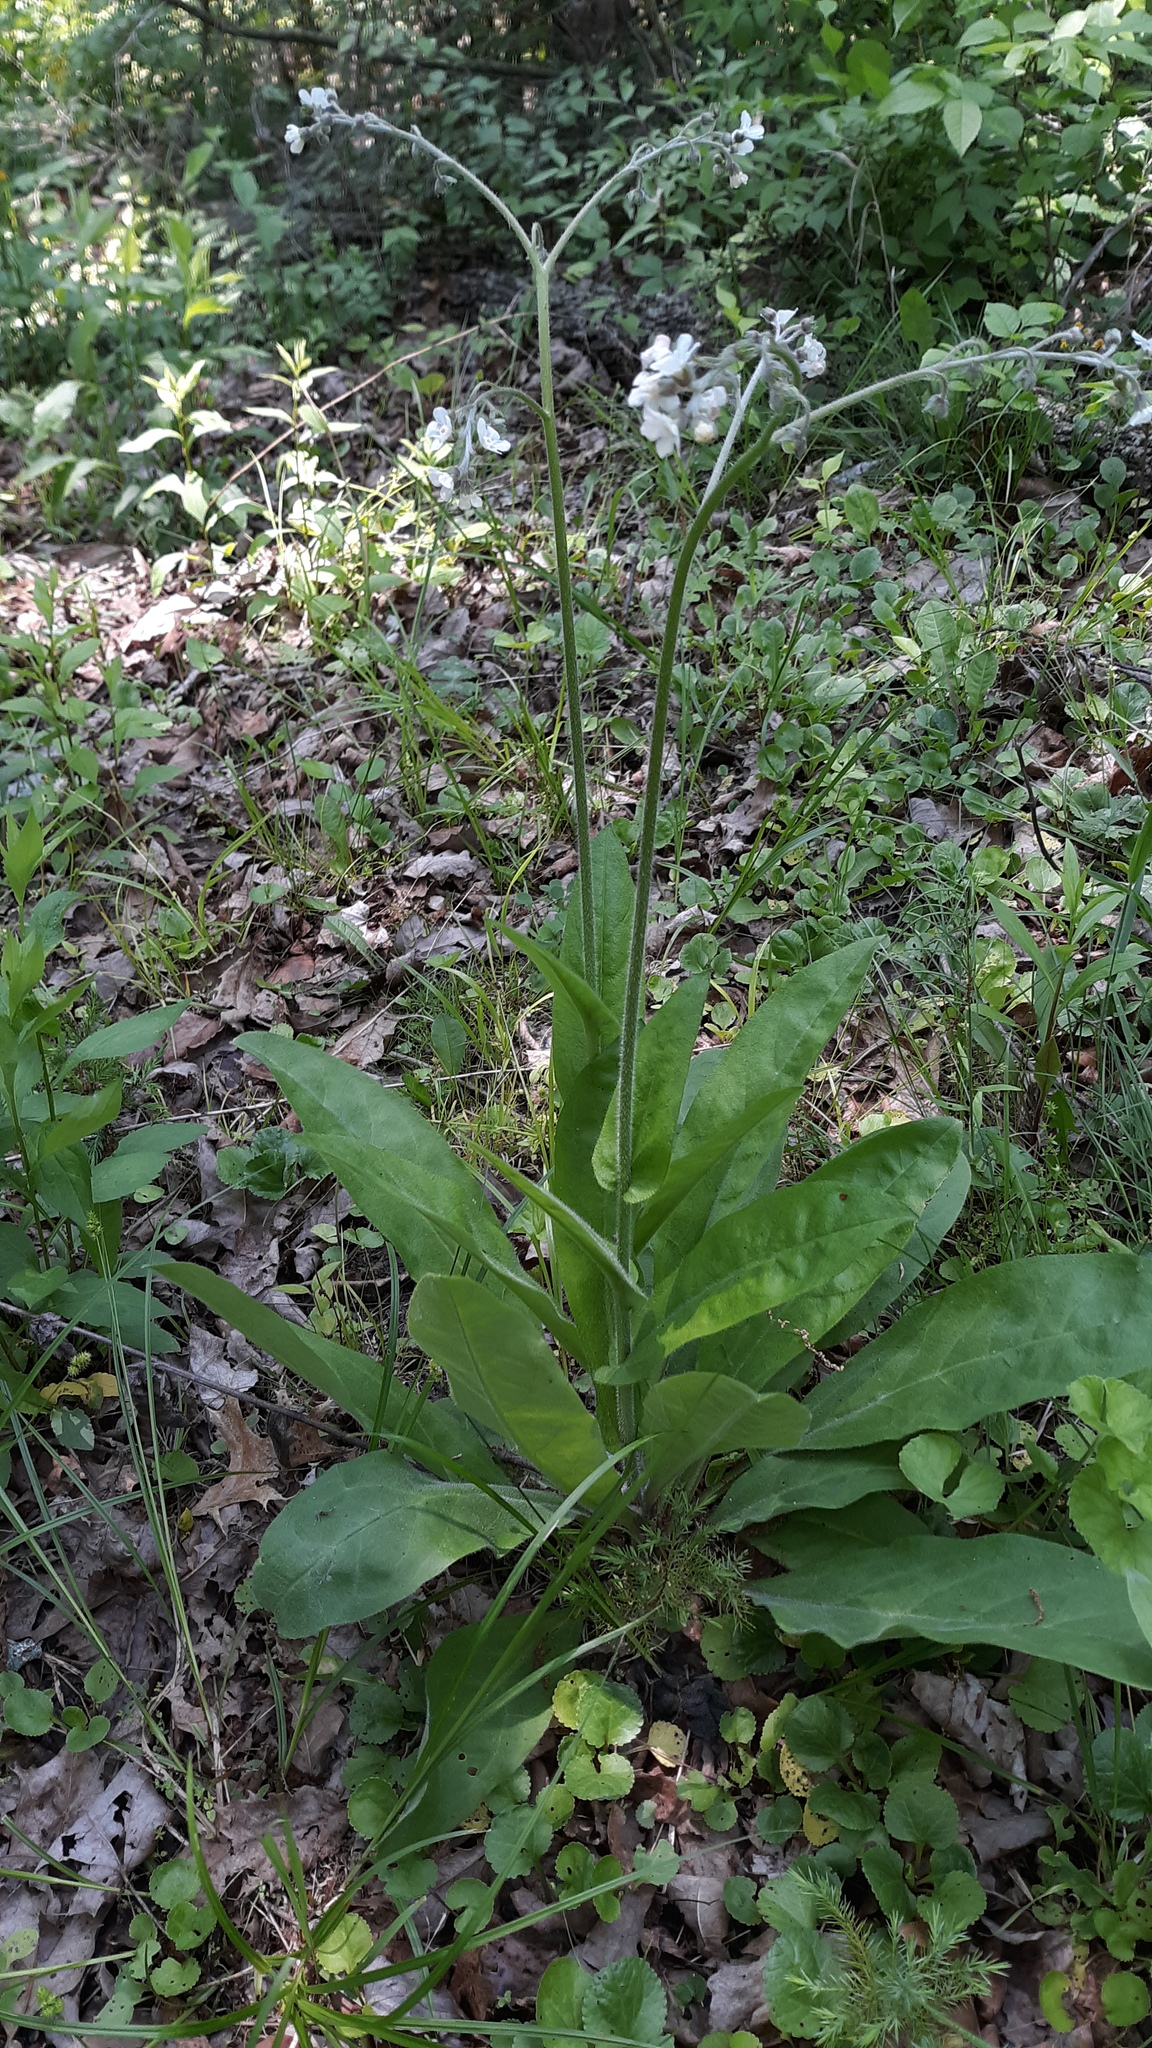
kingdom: Plantae
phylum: Tracheophyta
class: Magnoliopsida
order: Boraginales
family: Boraginaceae
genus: Andersonglossum
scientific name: Andersonglossum virginianum
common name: Wild comfrey
